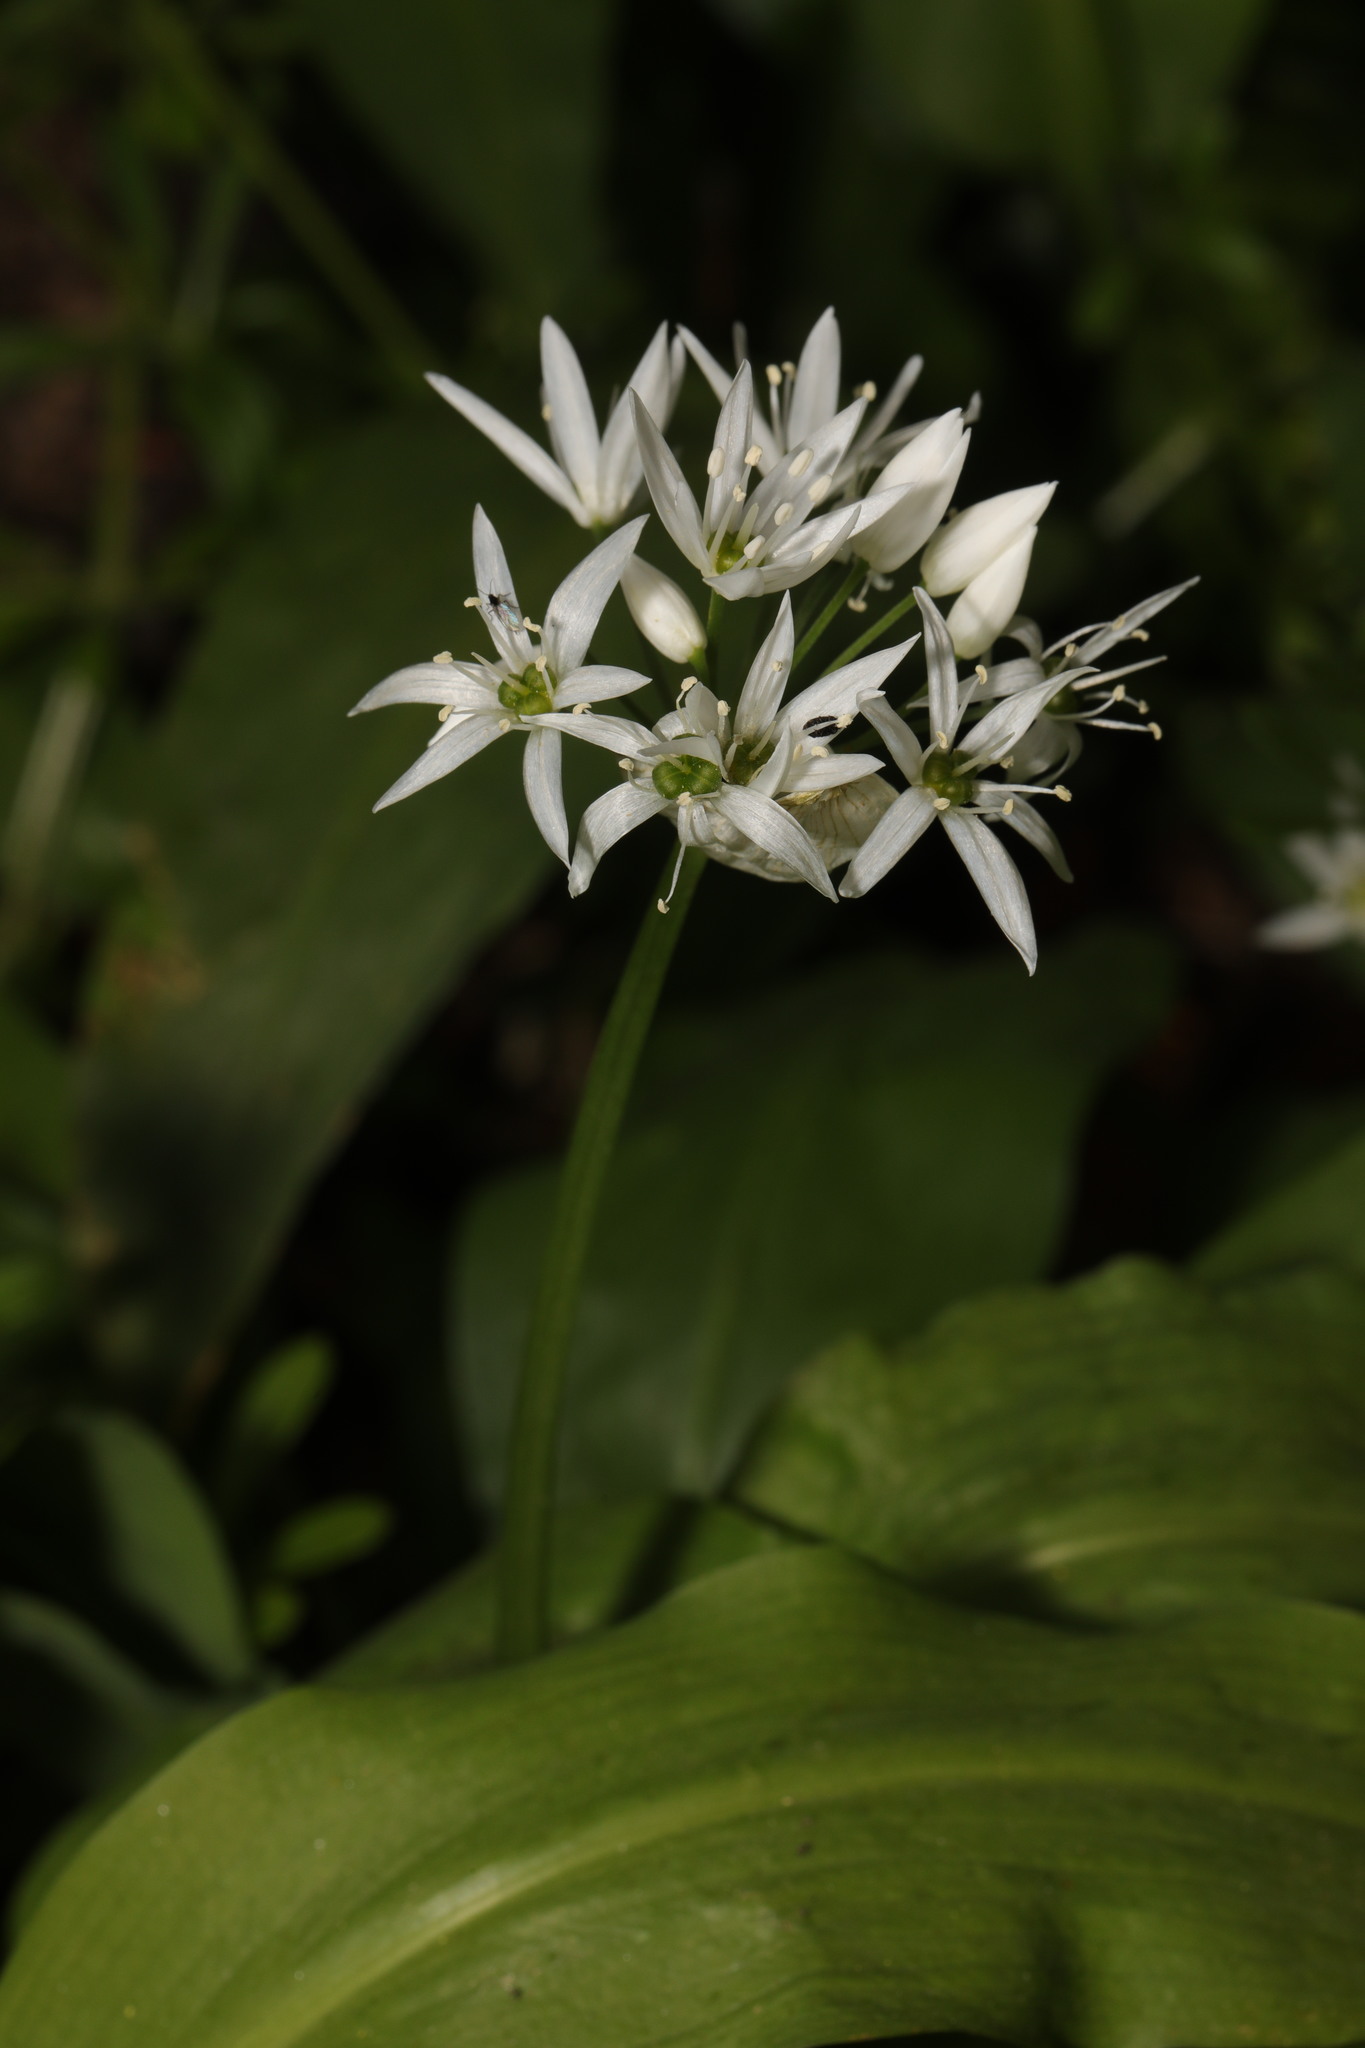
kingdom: Plantae
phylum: Tracheophyta
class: Liliopsida
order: Asparagales
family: Amaryllidaceae
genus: Allium
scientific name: Allium ursinum
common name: Ramsons
